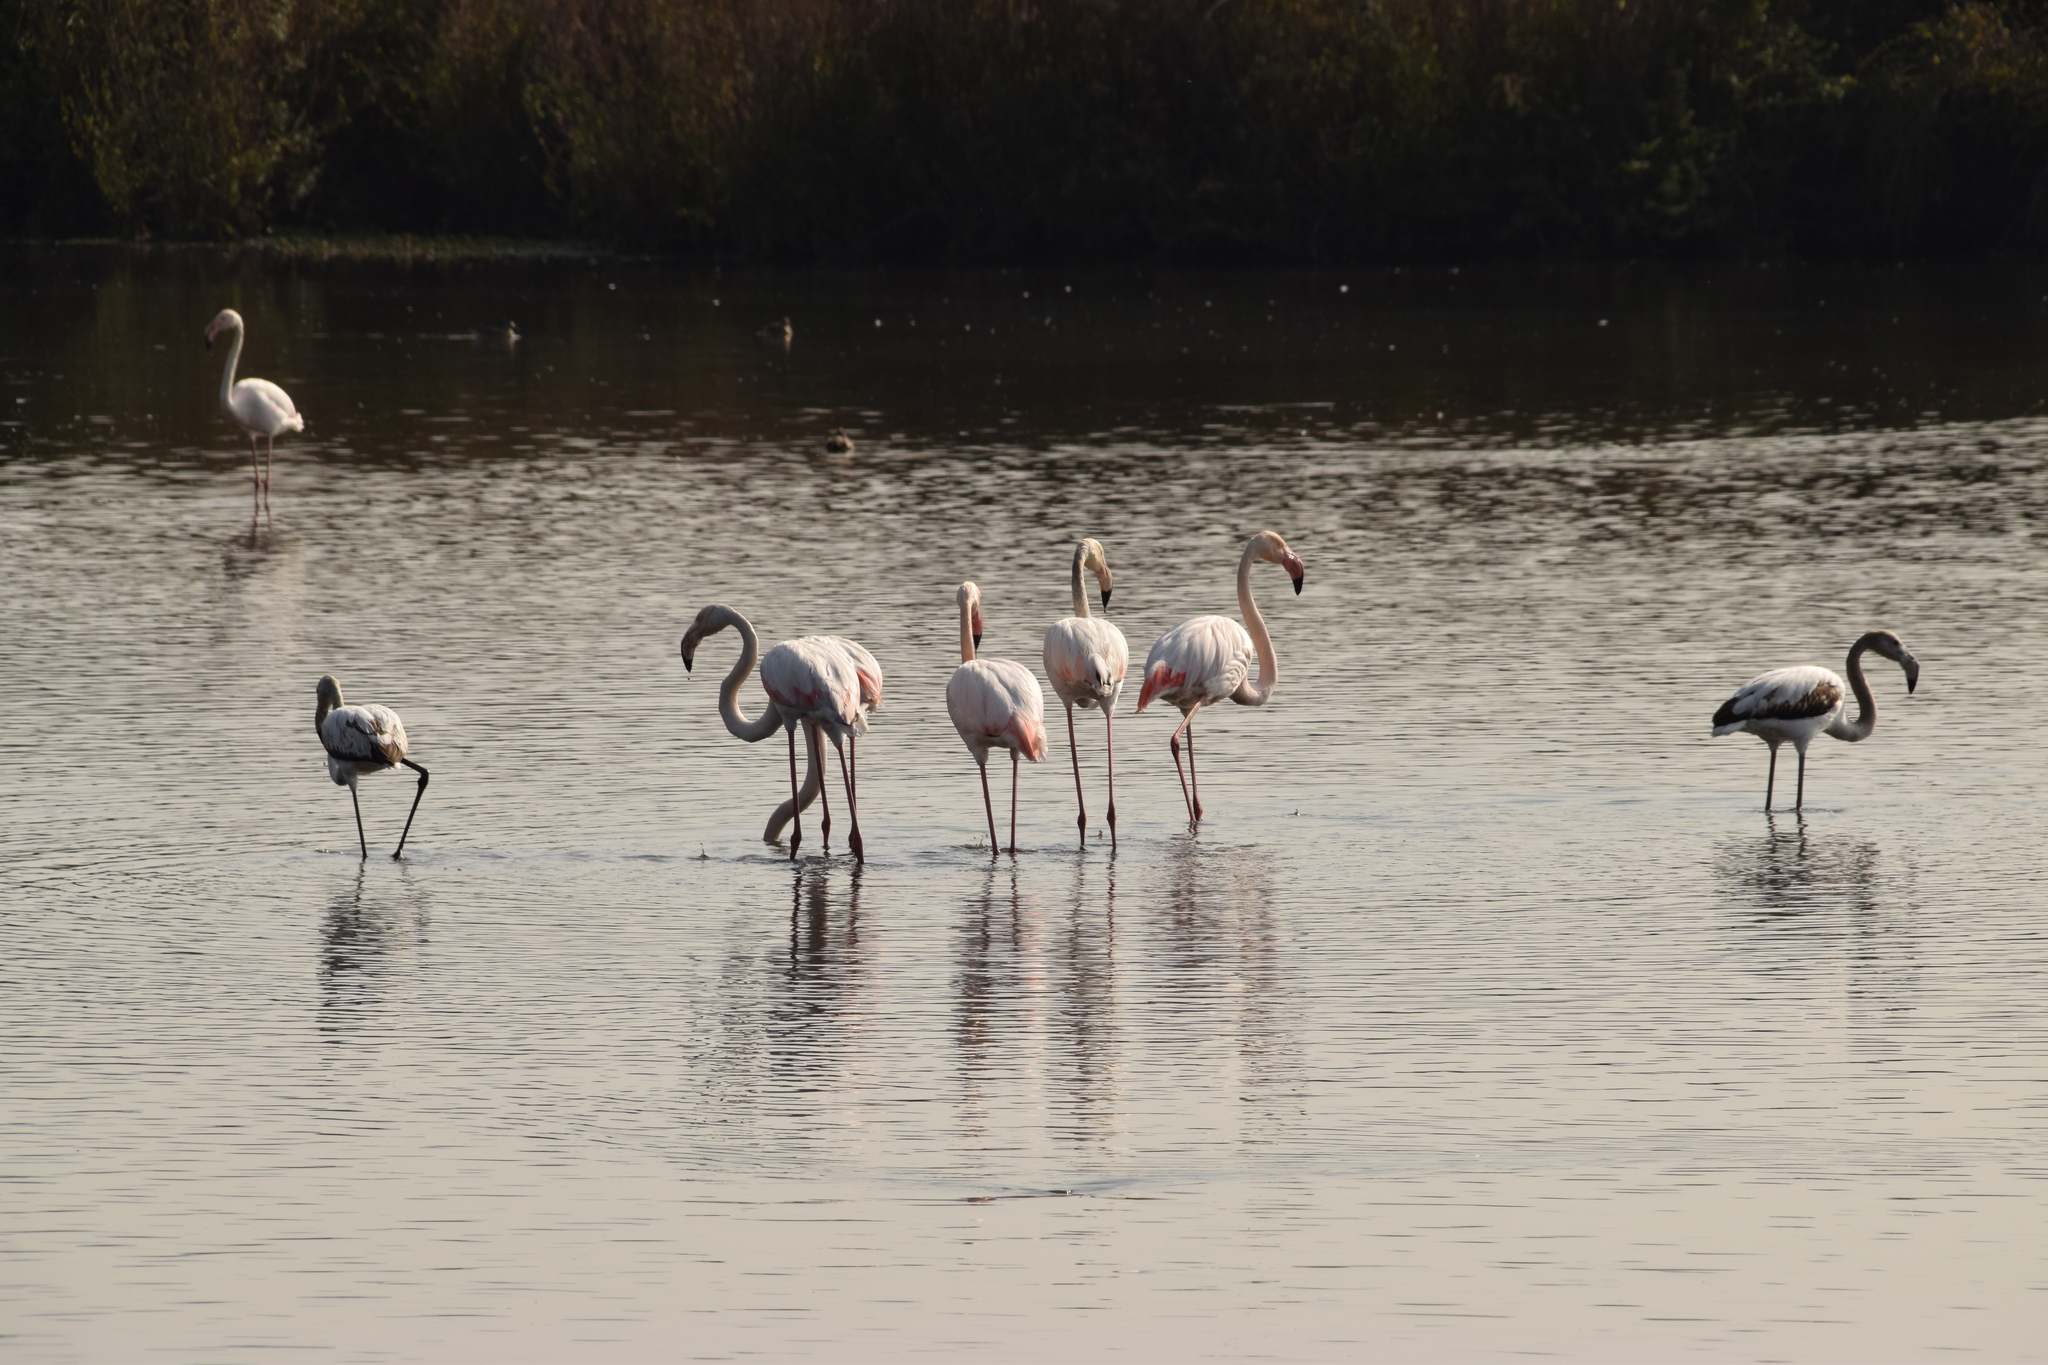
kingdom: Animalia
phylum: Chordata
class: Aves
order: Phoenicopteriformes
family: Phoenicopteridae
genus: Phoenicopterus
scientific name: Phoenicopterus roseus
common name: Greater flamingo
